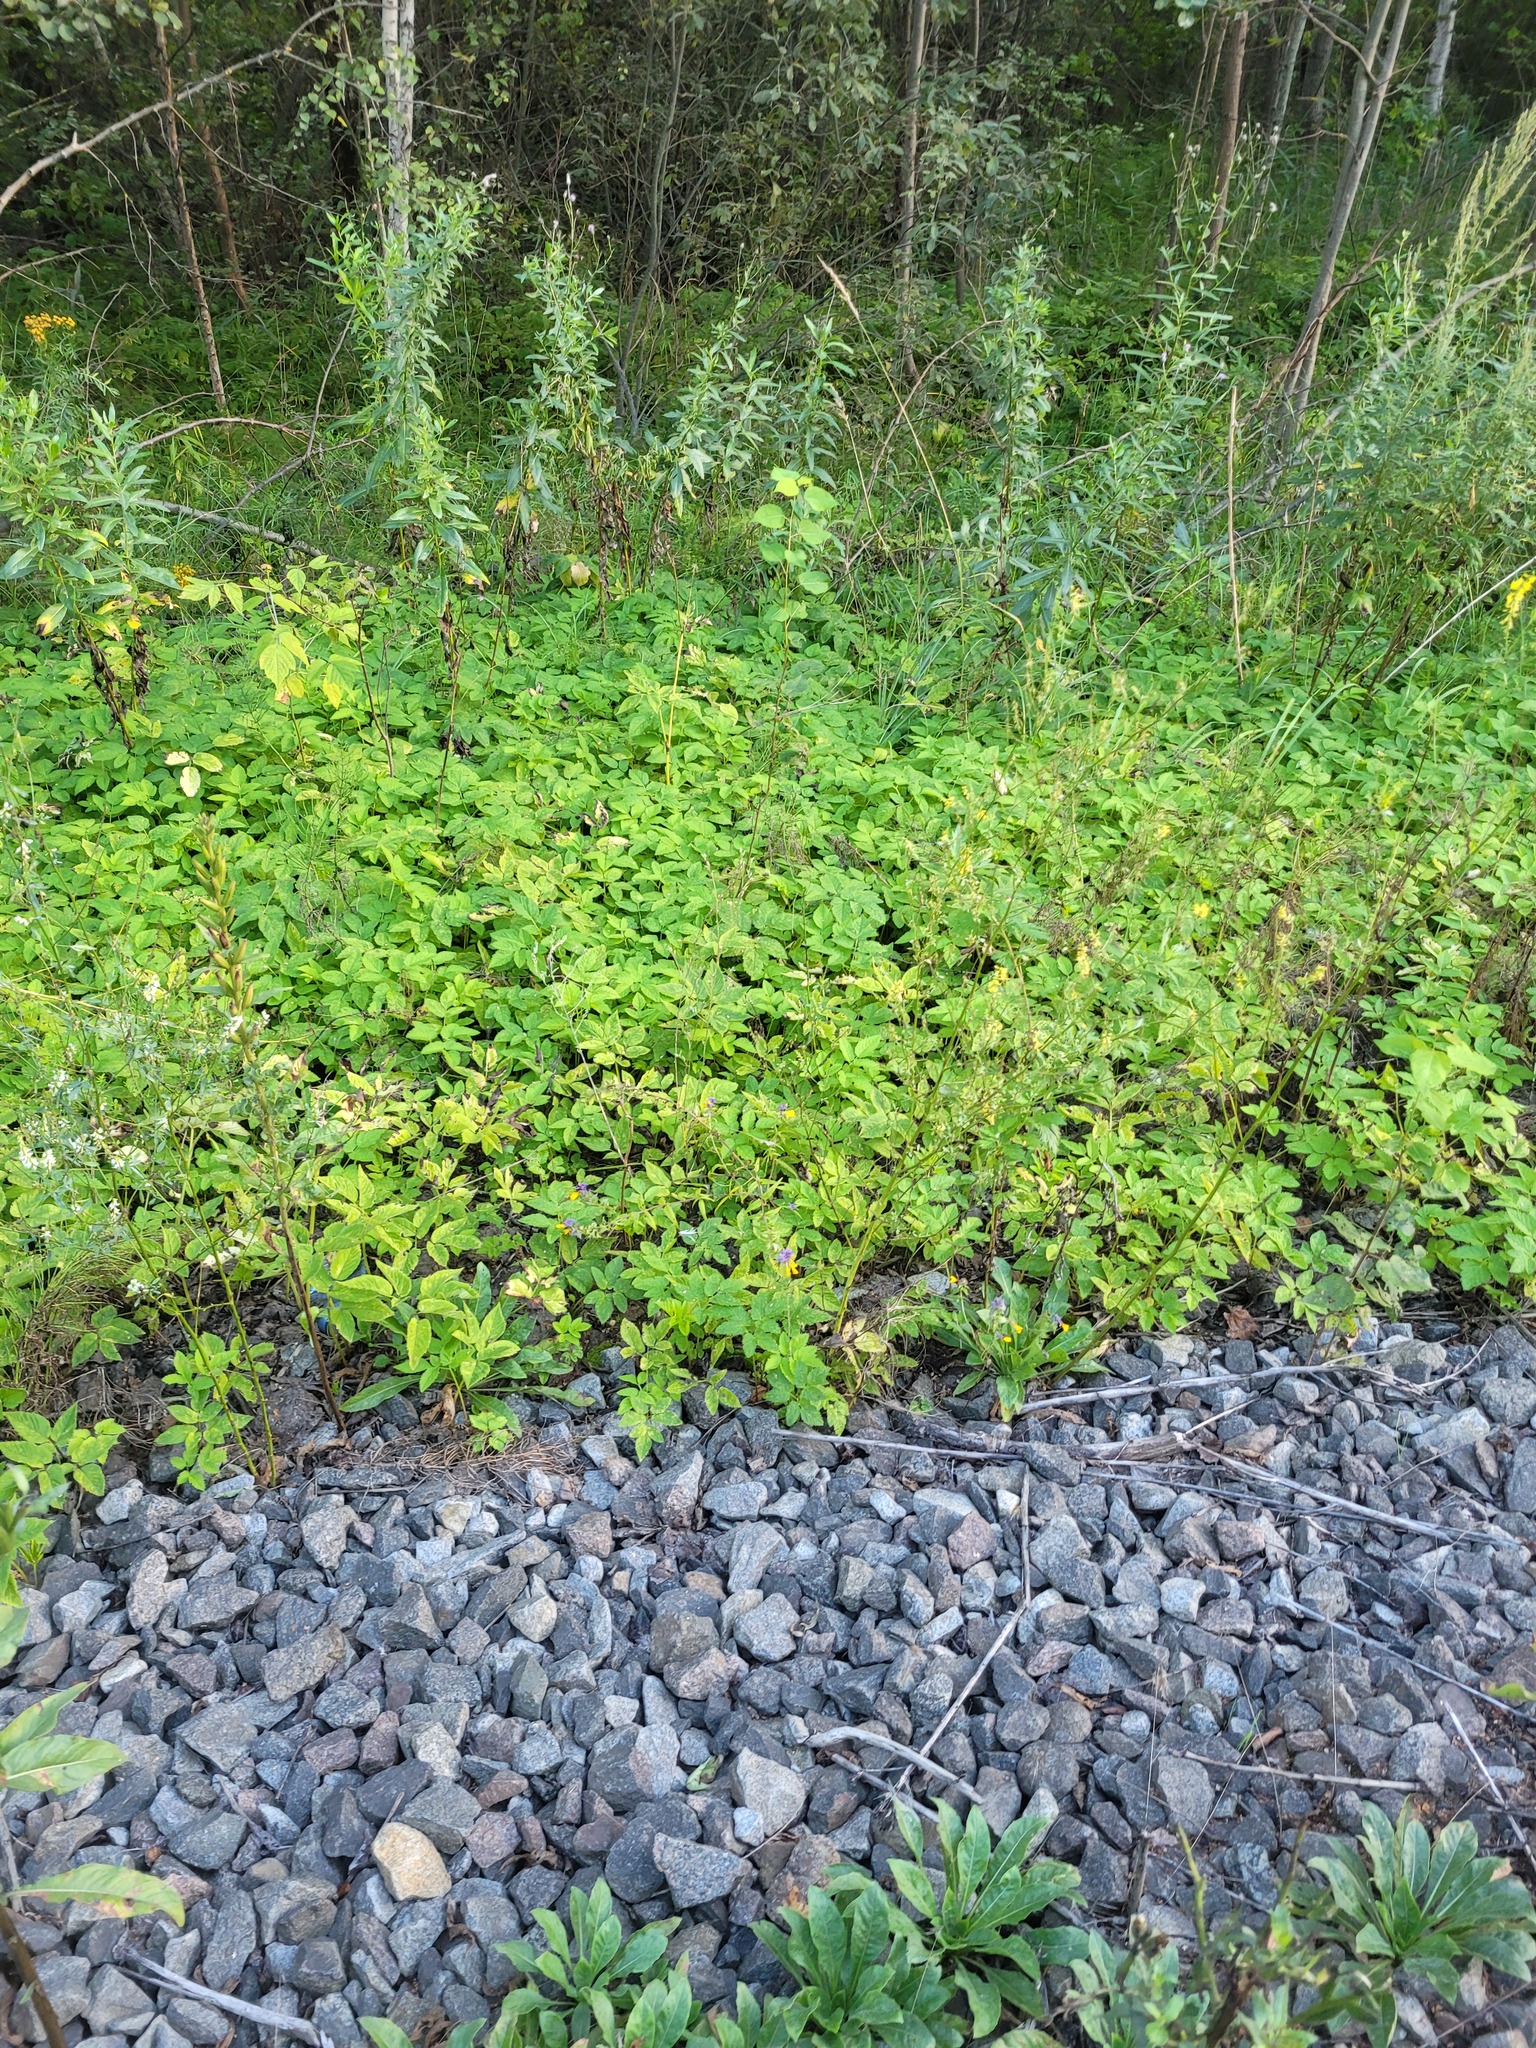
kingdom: Plantae
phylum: Tracheophyta
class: Magnoliopsida
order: Apiales
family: Apiaceae
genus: Aegopodium
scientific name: Aegopodium podagraria
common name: Ground-elder
